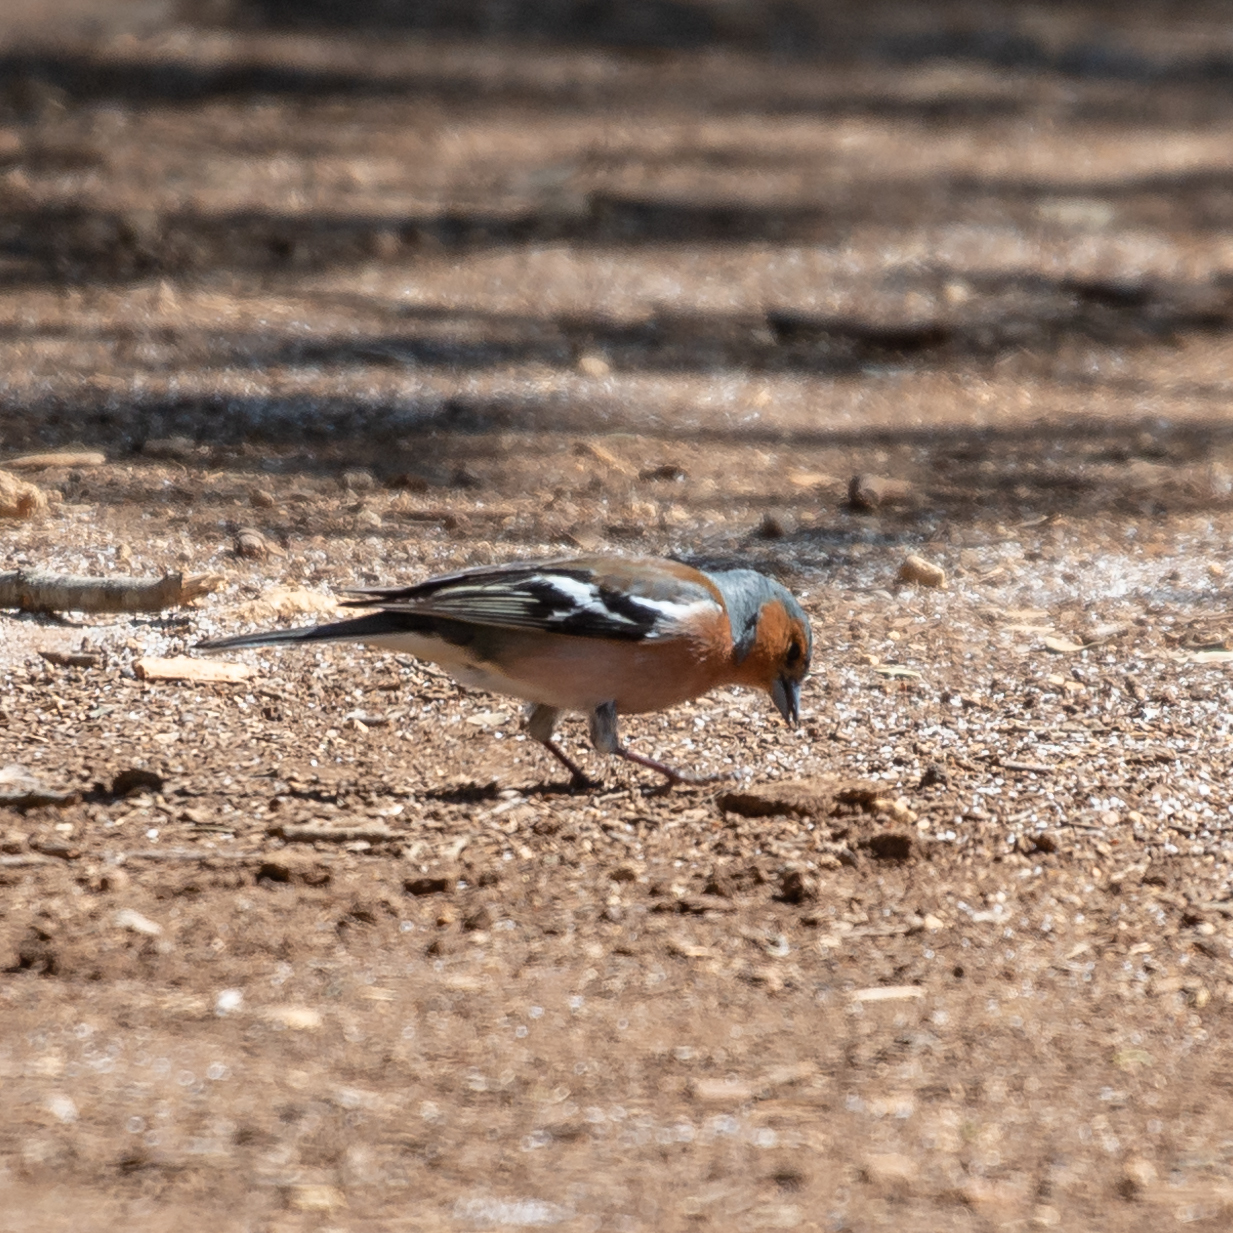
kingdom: Animalia
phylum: Chordata
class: Aves
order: Passeriformes
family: Fringillidae
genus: Fringilla
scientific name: Fringilla coelebs
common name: Common chaffinch
